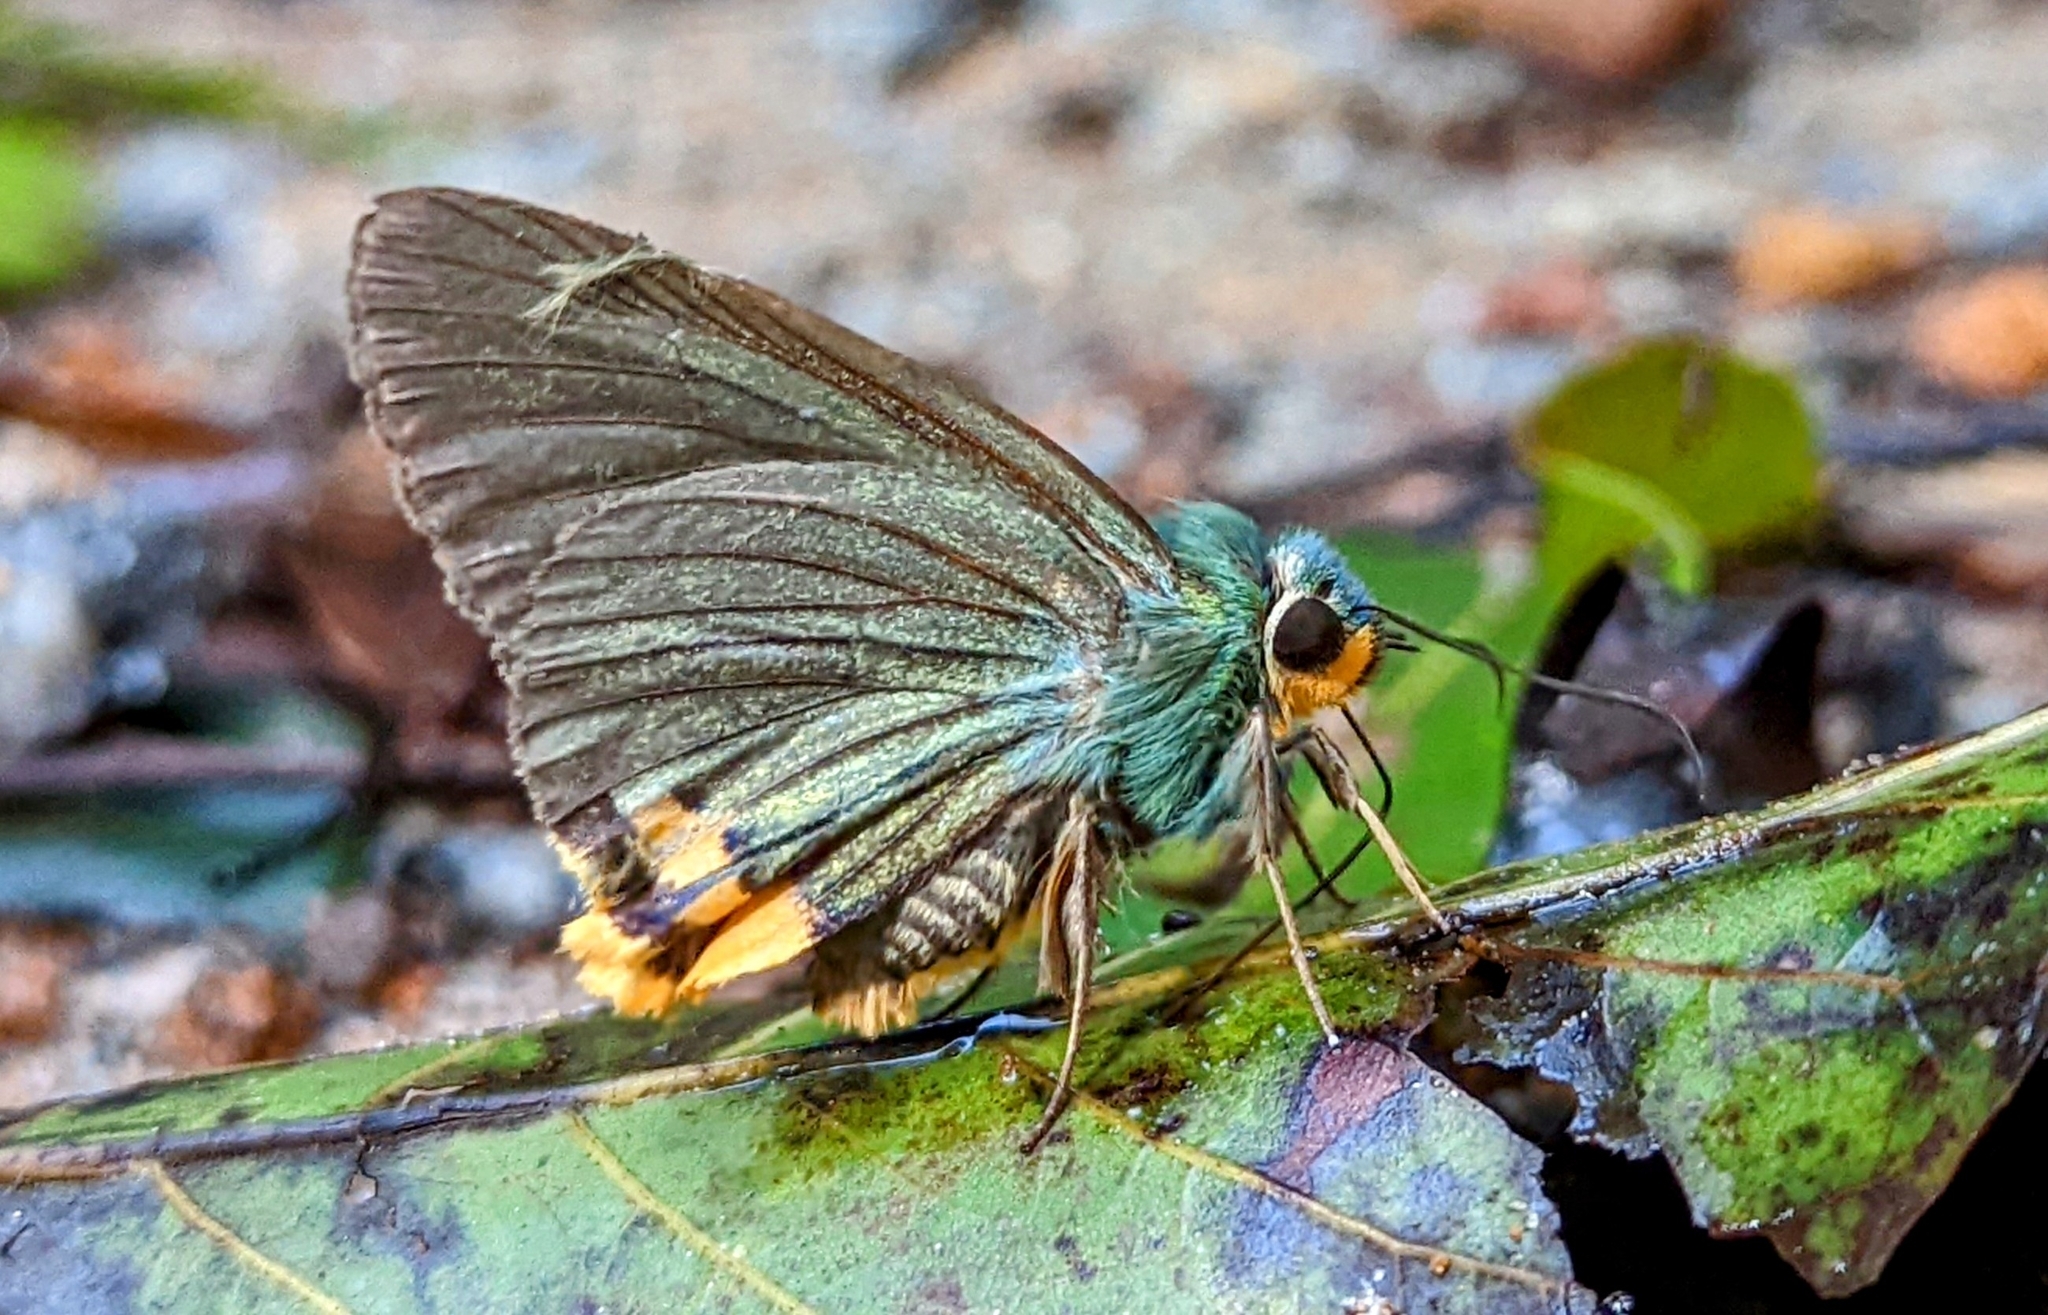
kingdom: Animalia
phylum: Arthropoda
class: Insecta
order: Lepidoptera
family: Hesperiidae
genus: Choaspes
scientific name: Choaspes benjaminii
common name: Indian awlking
